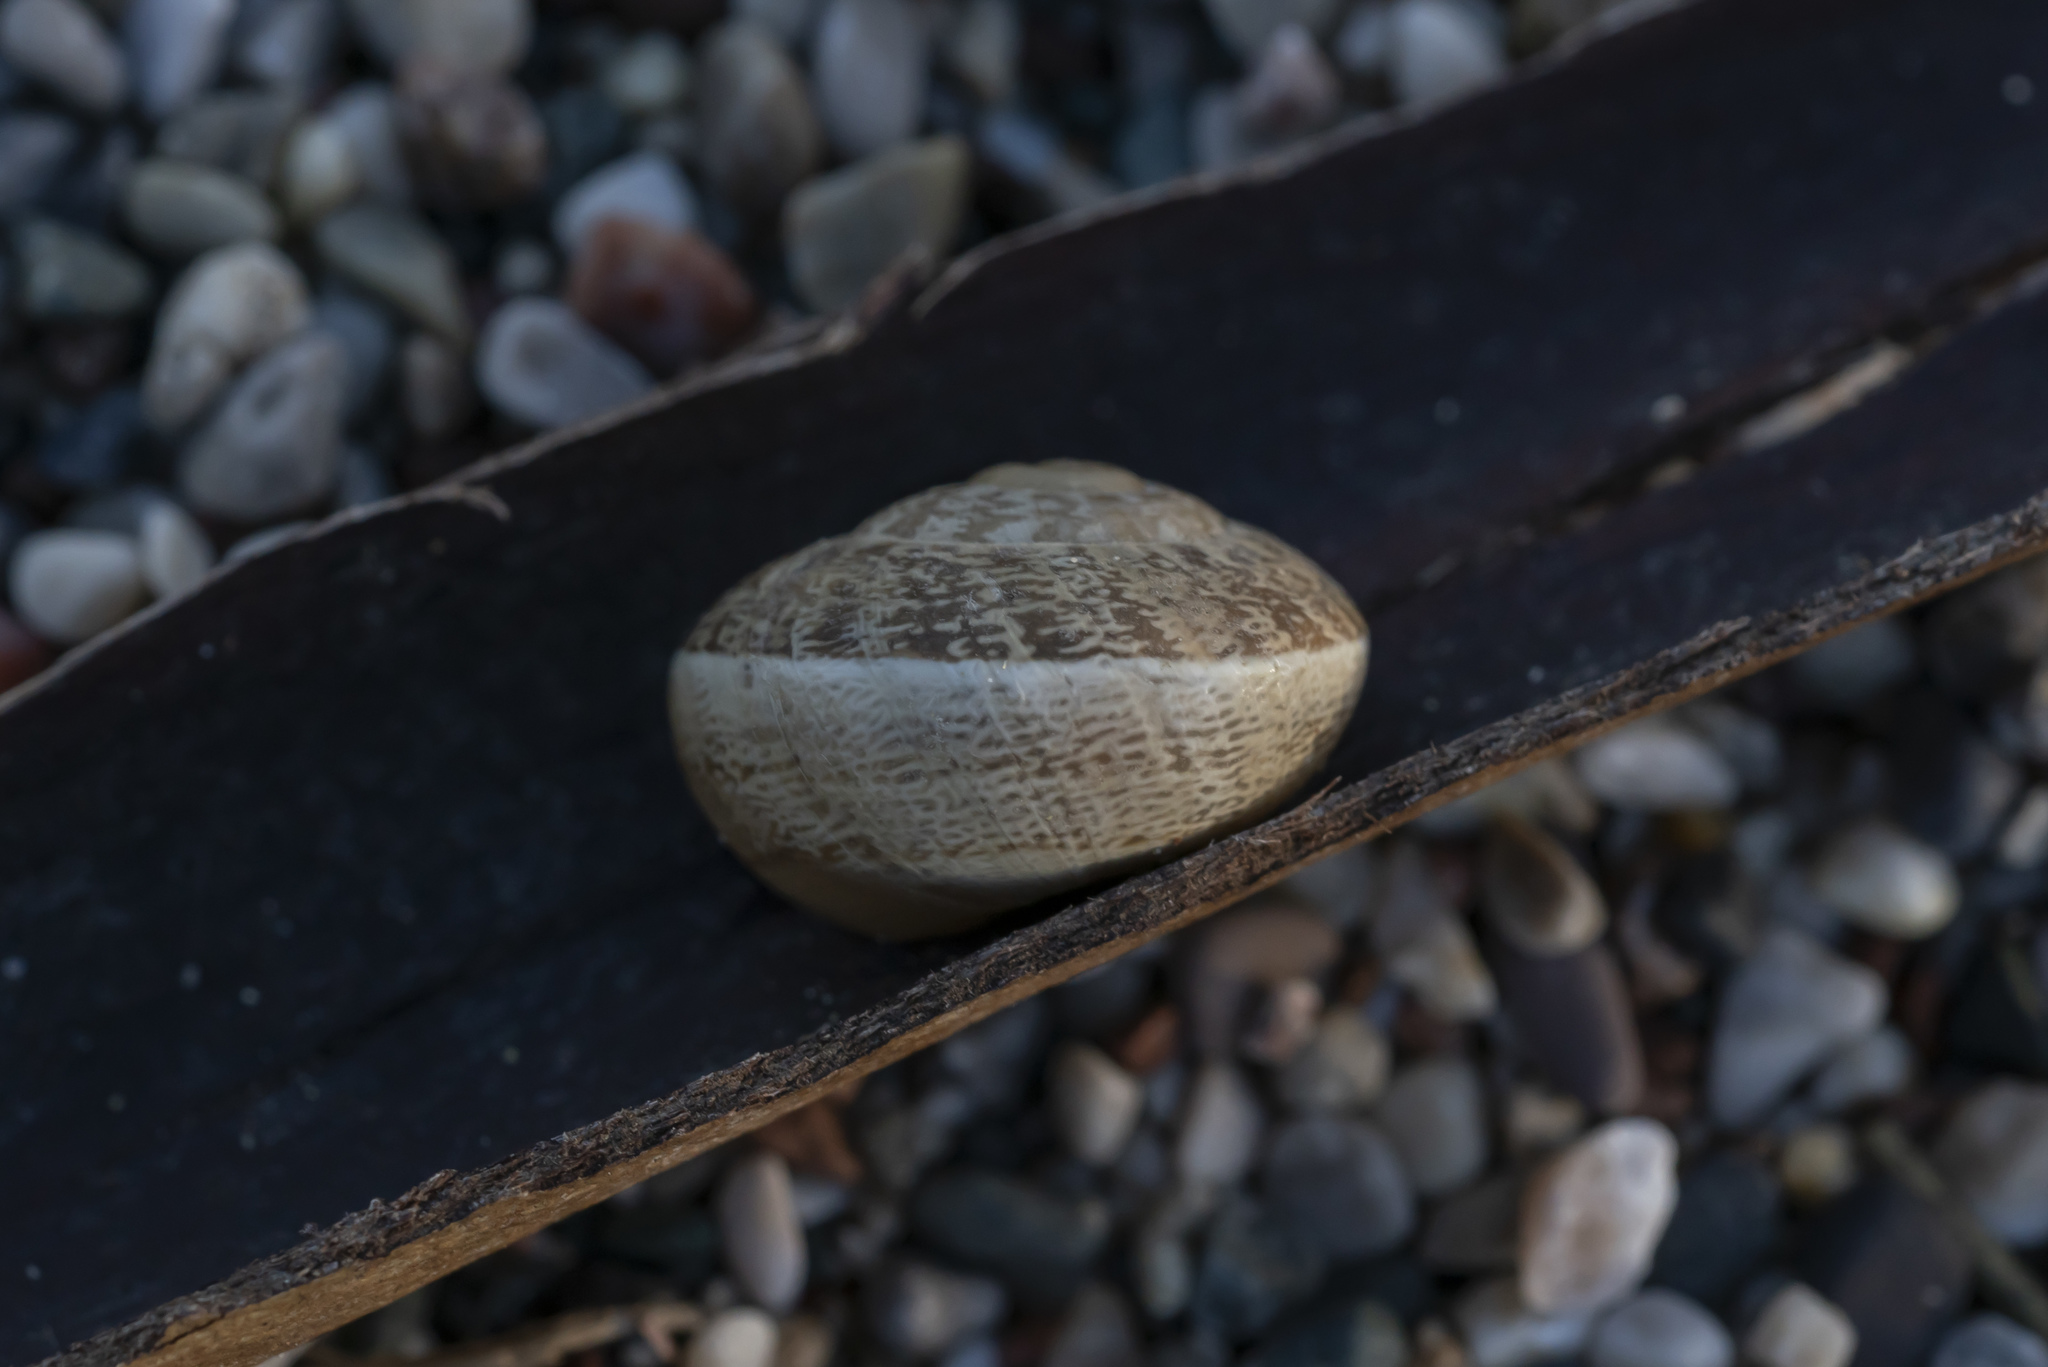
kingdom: Animalia
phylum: Mollusca
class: Gastropoda
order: Stylommatophora
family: Helicidae
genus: Eobania
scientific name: Eobania vermiculata
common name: Chocolateband snail
